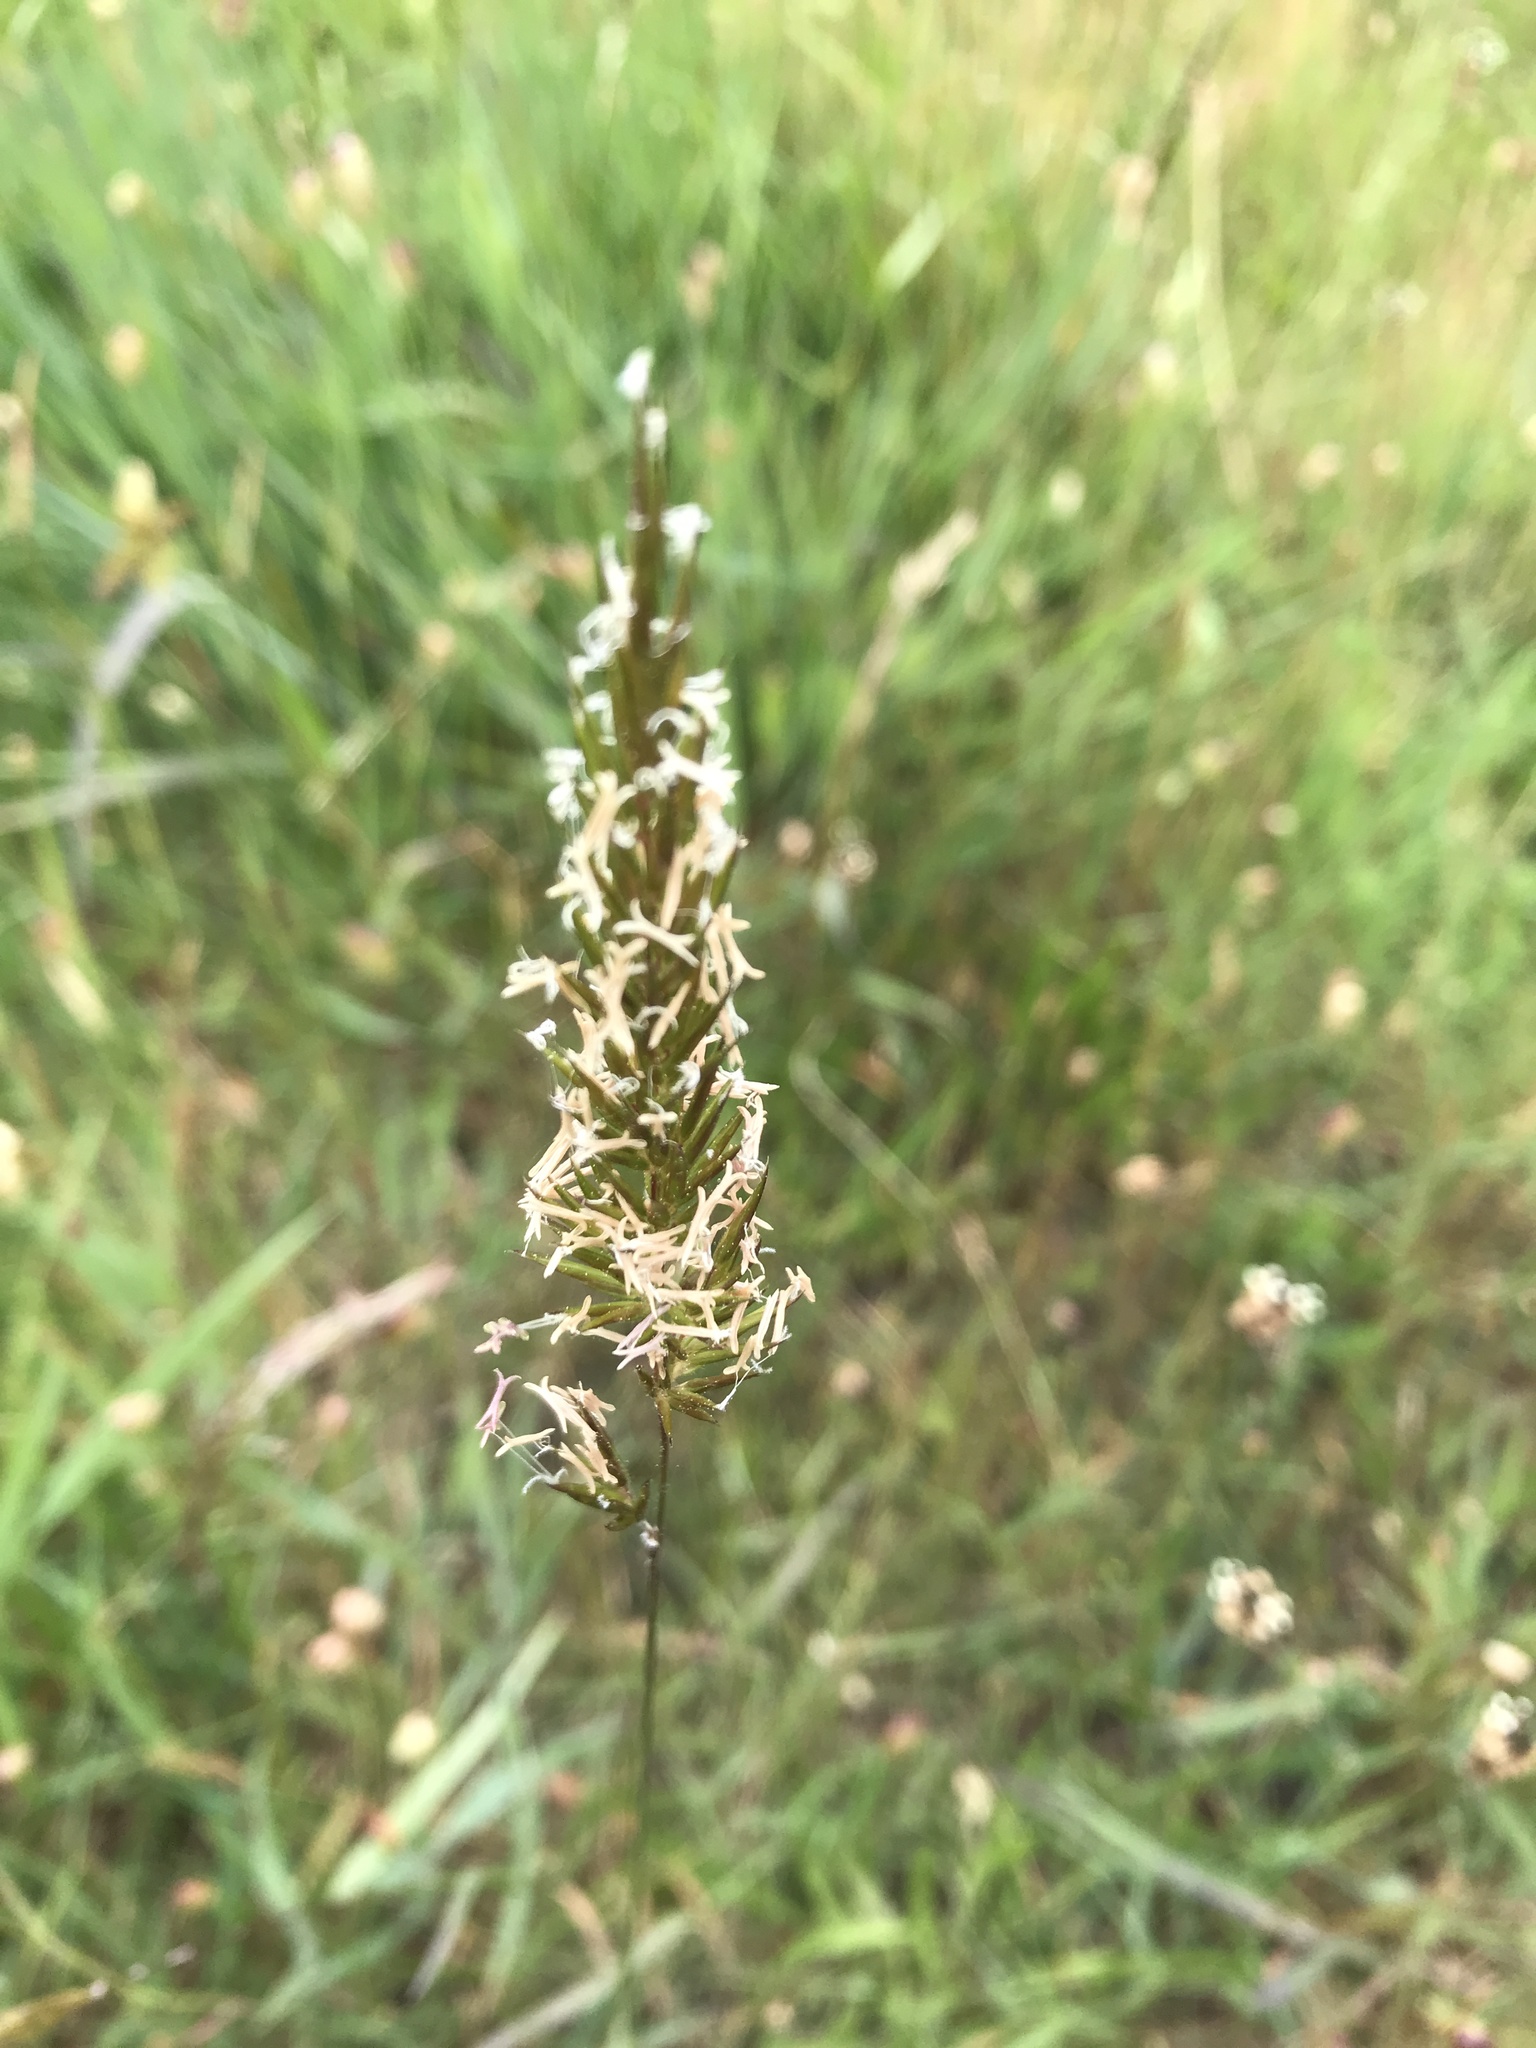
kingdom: Plantae
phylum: Tracheophyta
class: Liliopsida
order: Poales
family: Poaceae
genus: Anthoxanthum
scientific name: Anthoxanthum odoratum
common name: Sweet vernalgrass
